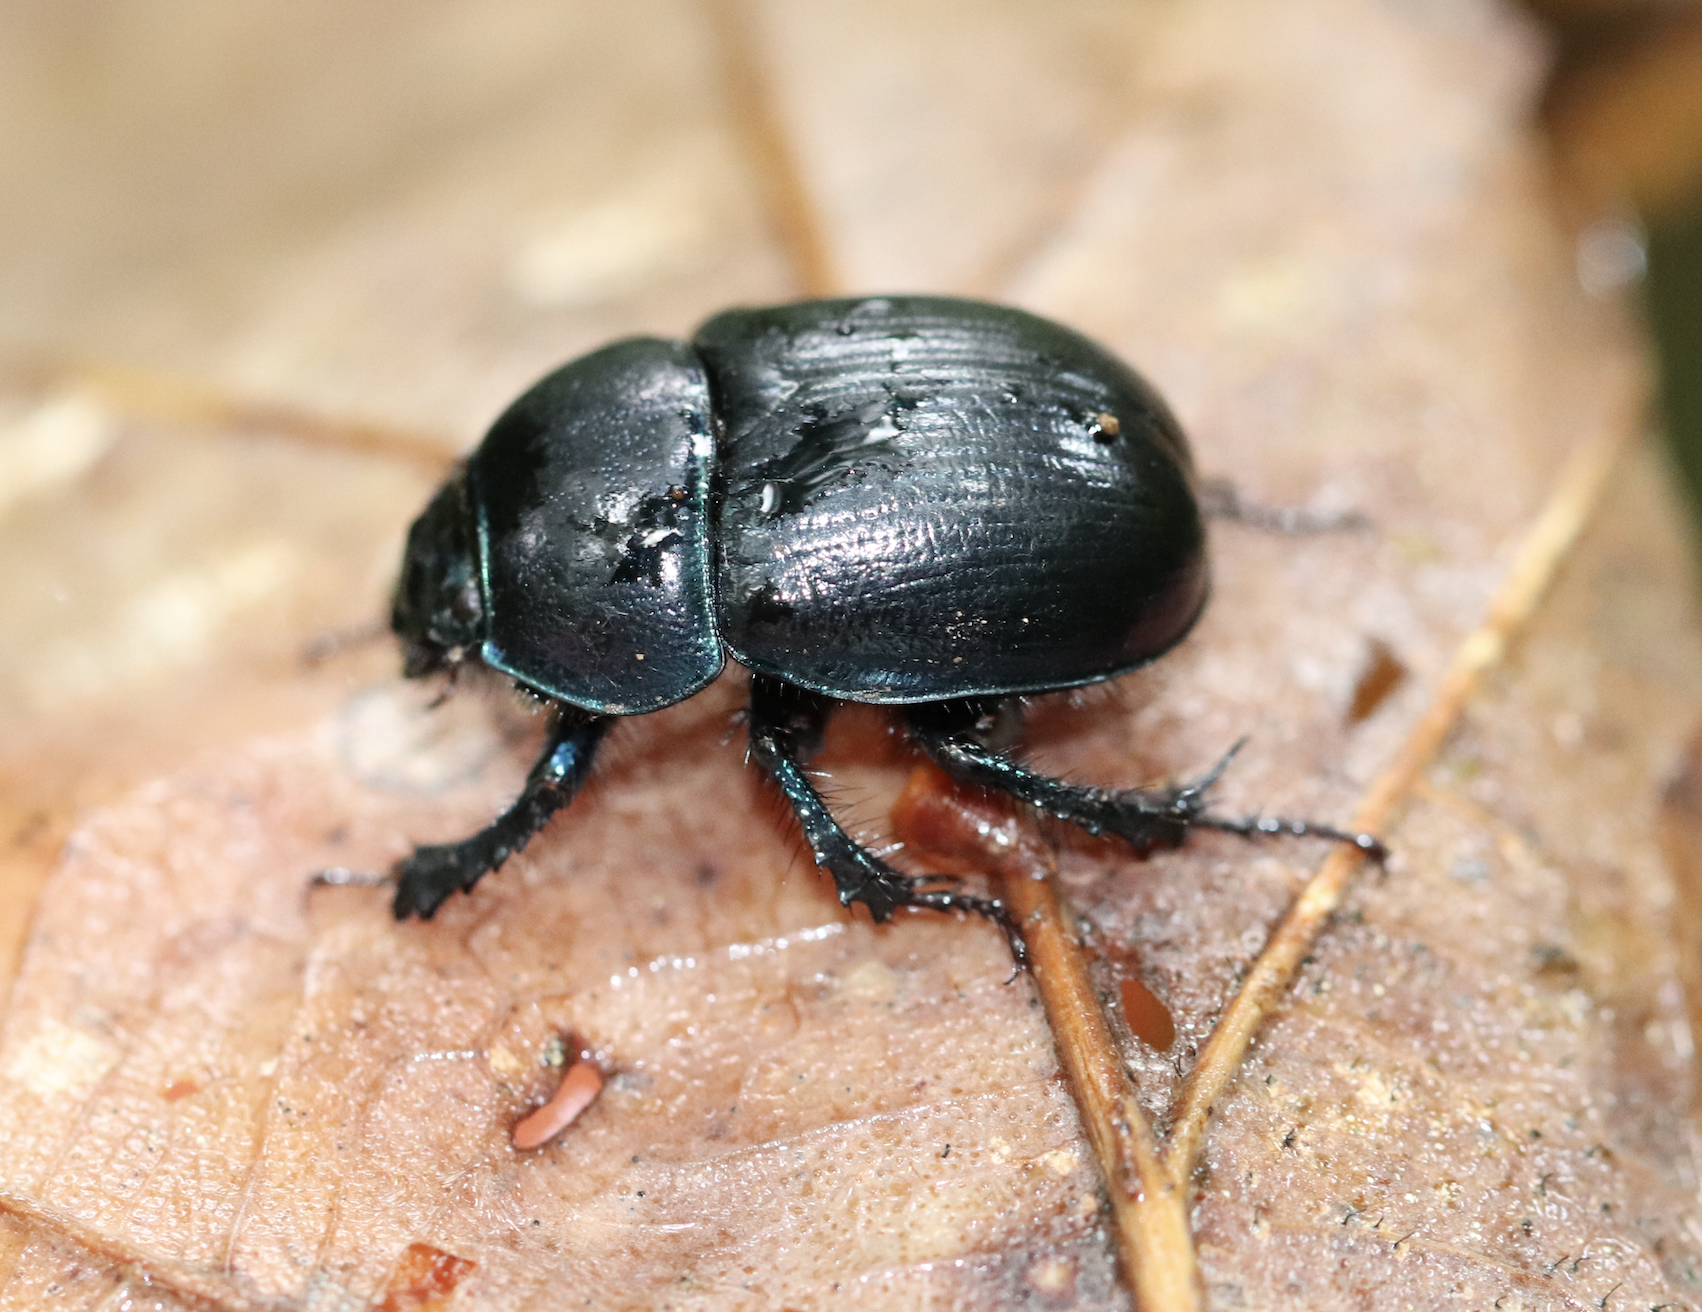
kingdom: Animalia
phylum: Arthropoda
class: Insecta
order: Coleoptera
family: Geotrupidae
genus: Anoplotrupes
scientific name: Anoplotrupes stercorosus
